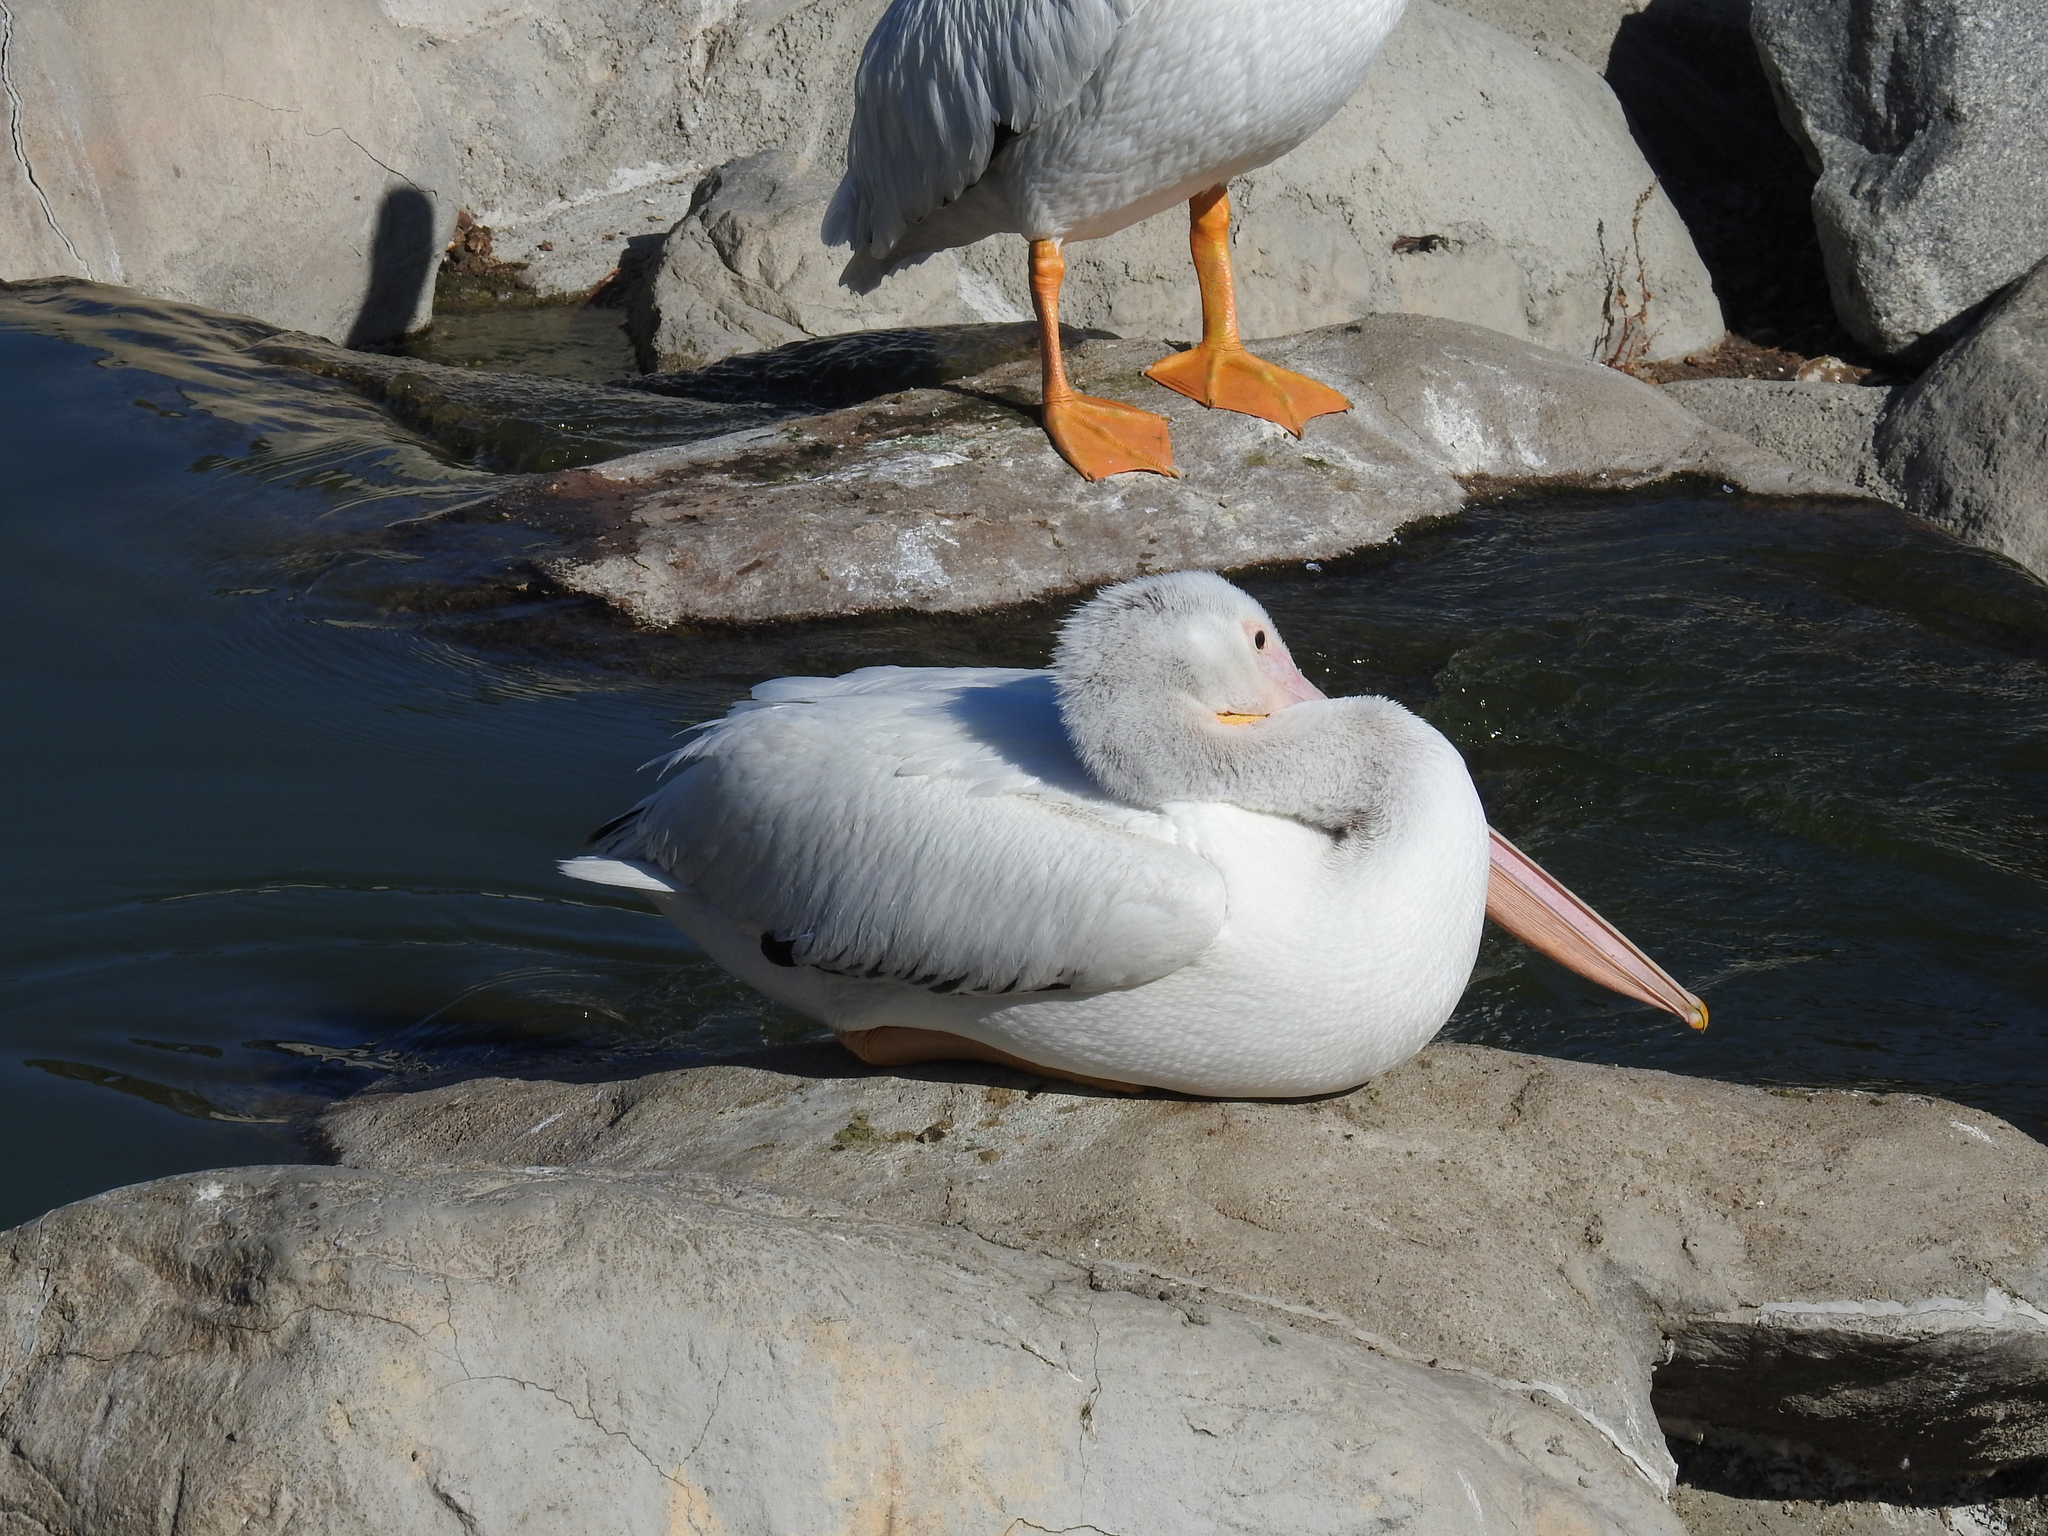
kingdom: Animalia
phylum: Chordata
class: Aves
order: Pelecaniformes
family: Pelecanidae
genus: Pelecanus
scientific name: Pelecanus erythrorhynchos
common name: American white pelican
